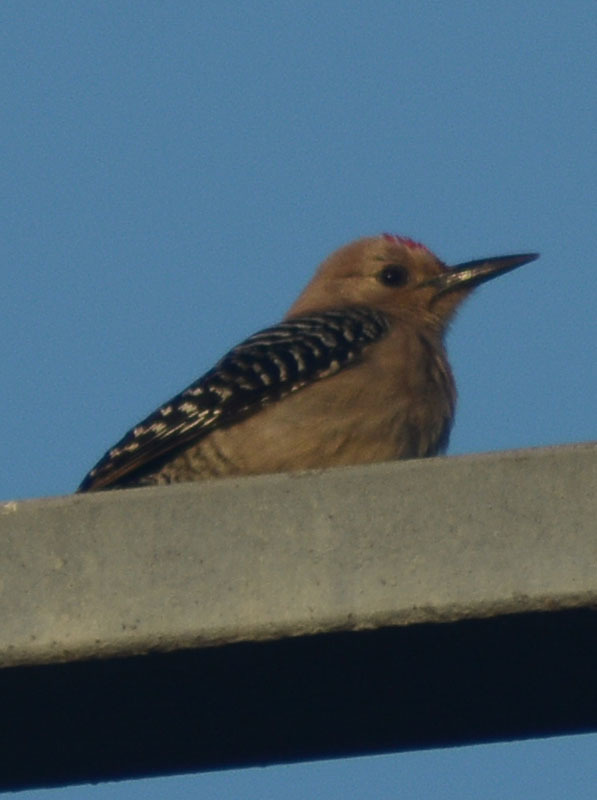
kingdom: Animalia
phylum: Chordata
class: Aves
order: Piciformes
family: Picidae
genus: Melanerpes
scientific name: Melanerpes uropygialis
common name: Gila woodpecker
